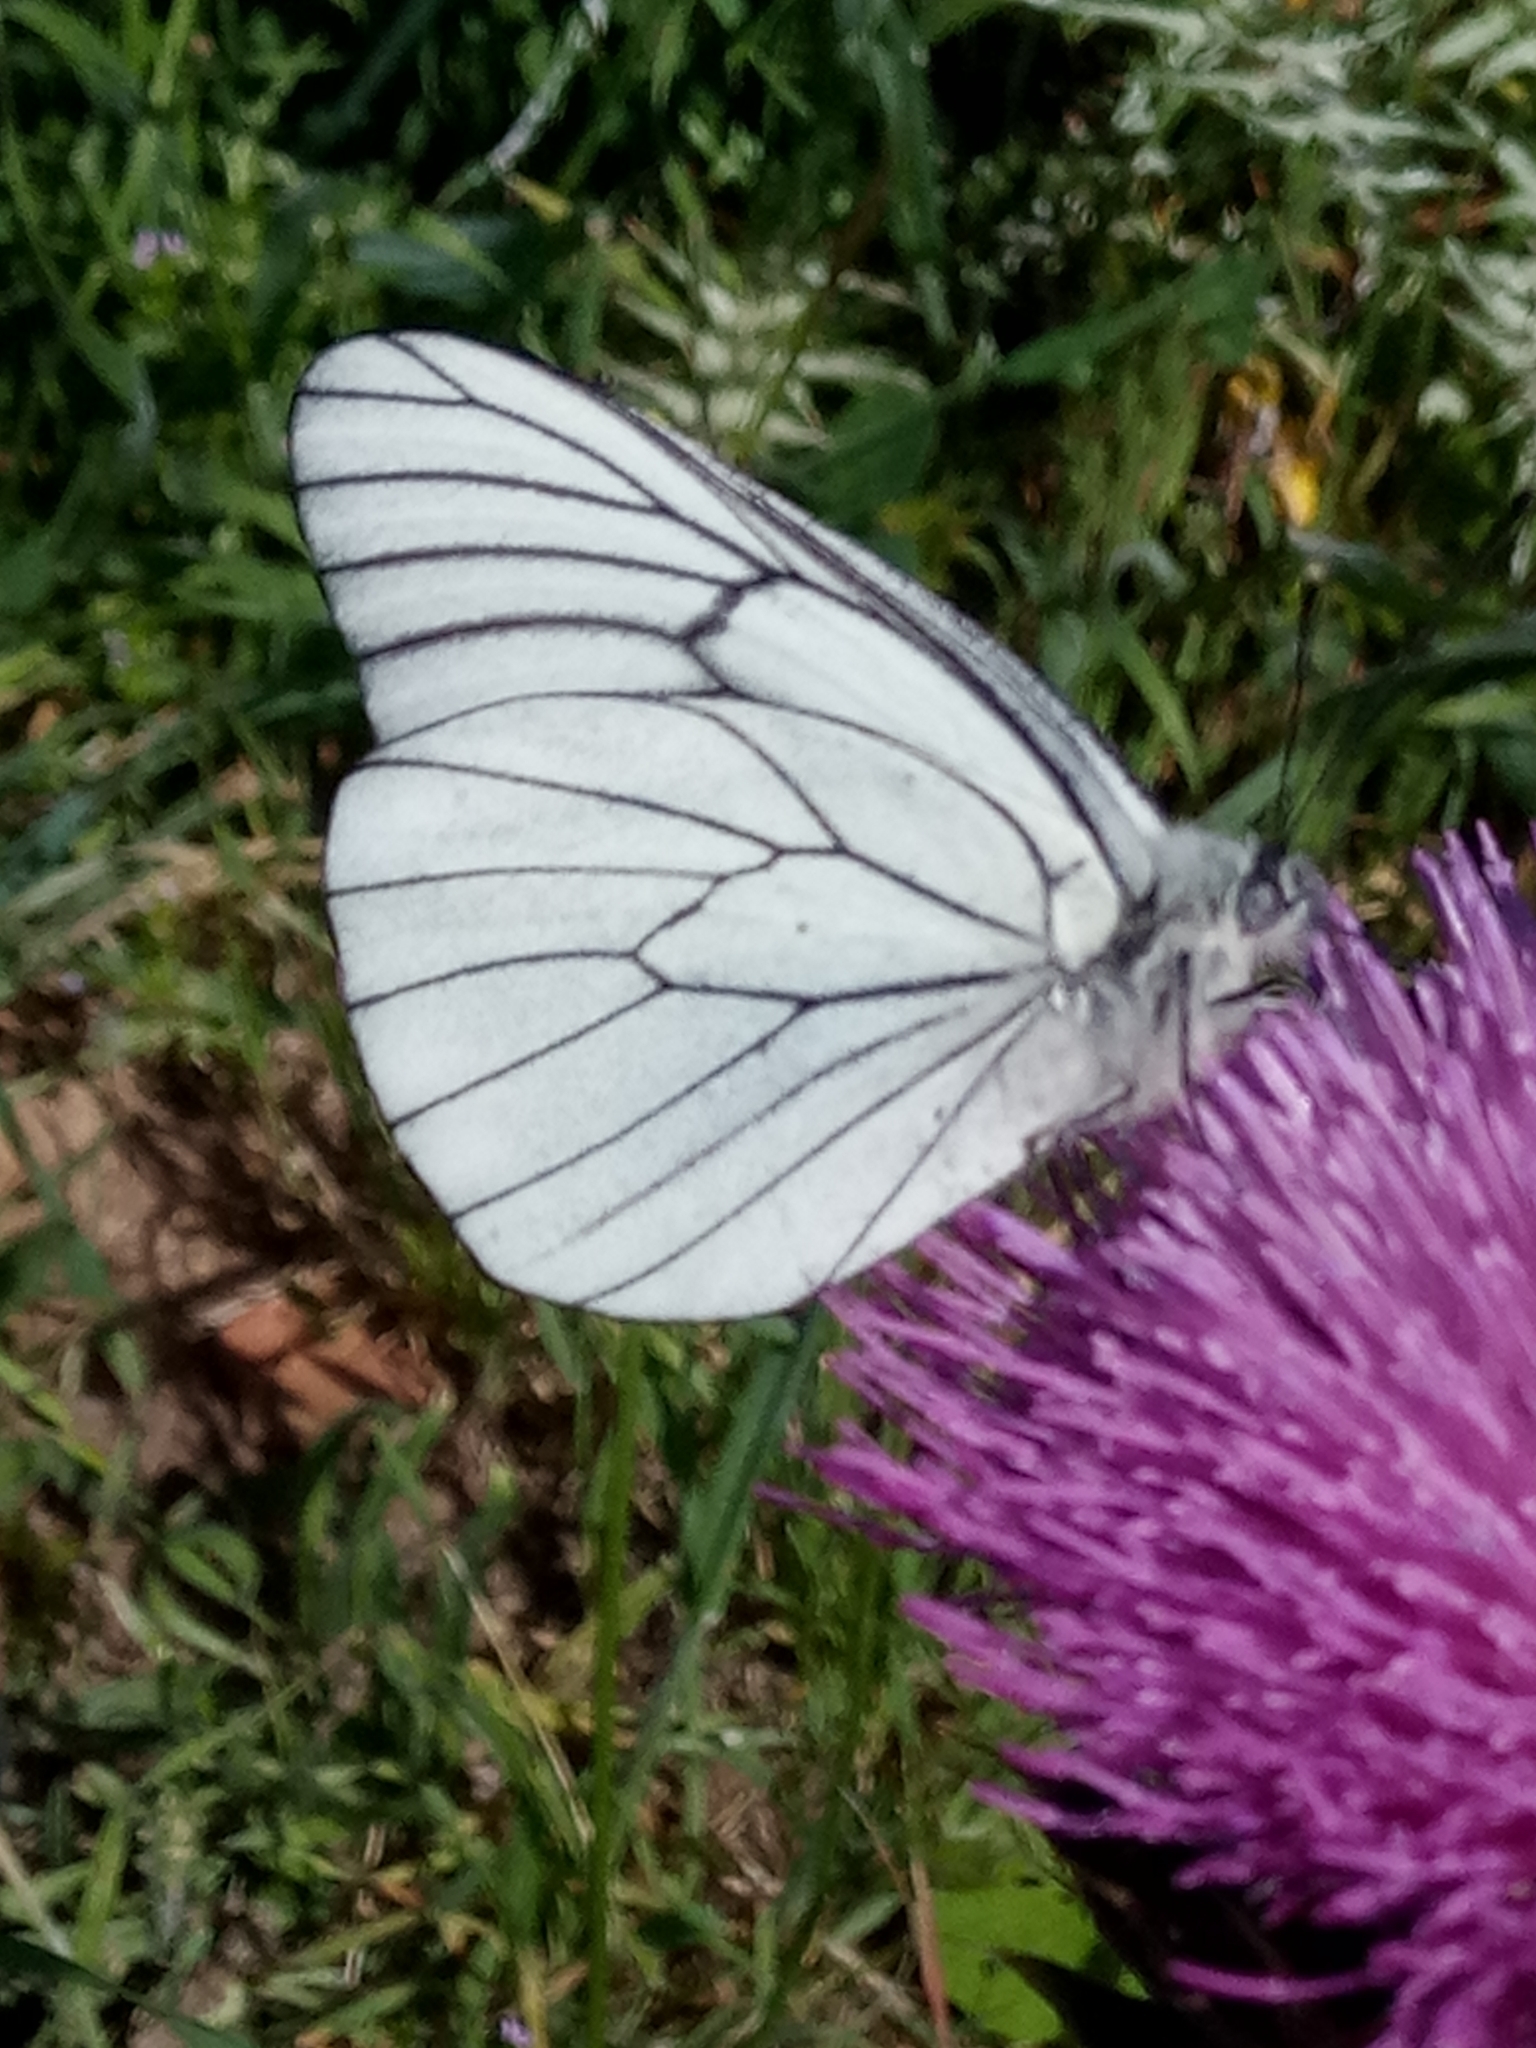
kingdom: Animalia
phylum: Arthropoda
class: Insecta
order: Lepidoptera
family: Pieridae
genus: Aporia
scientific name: Aporia crataegi
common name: Black-veined white
